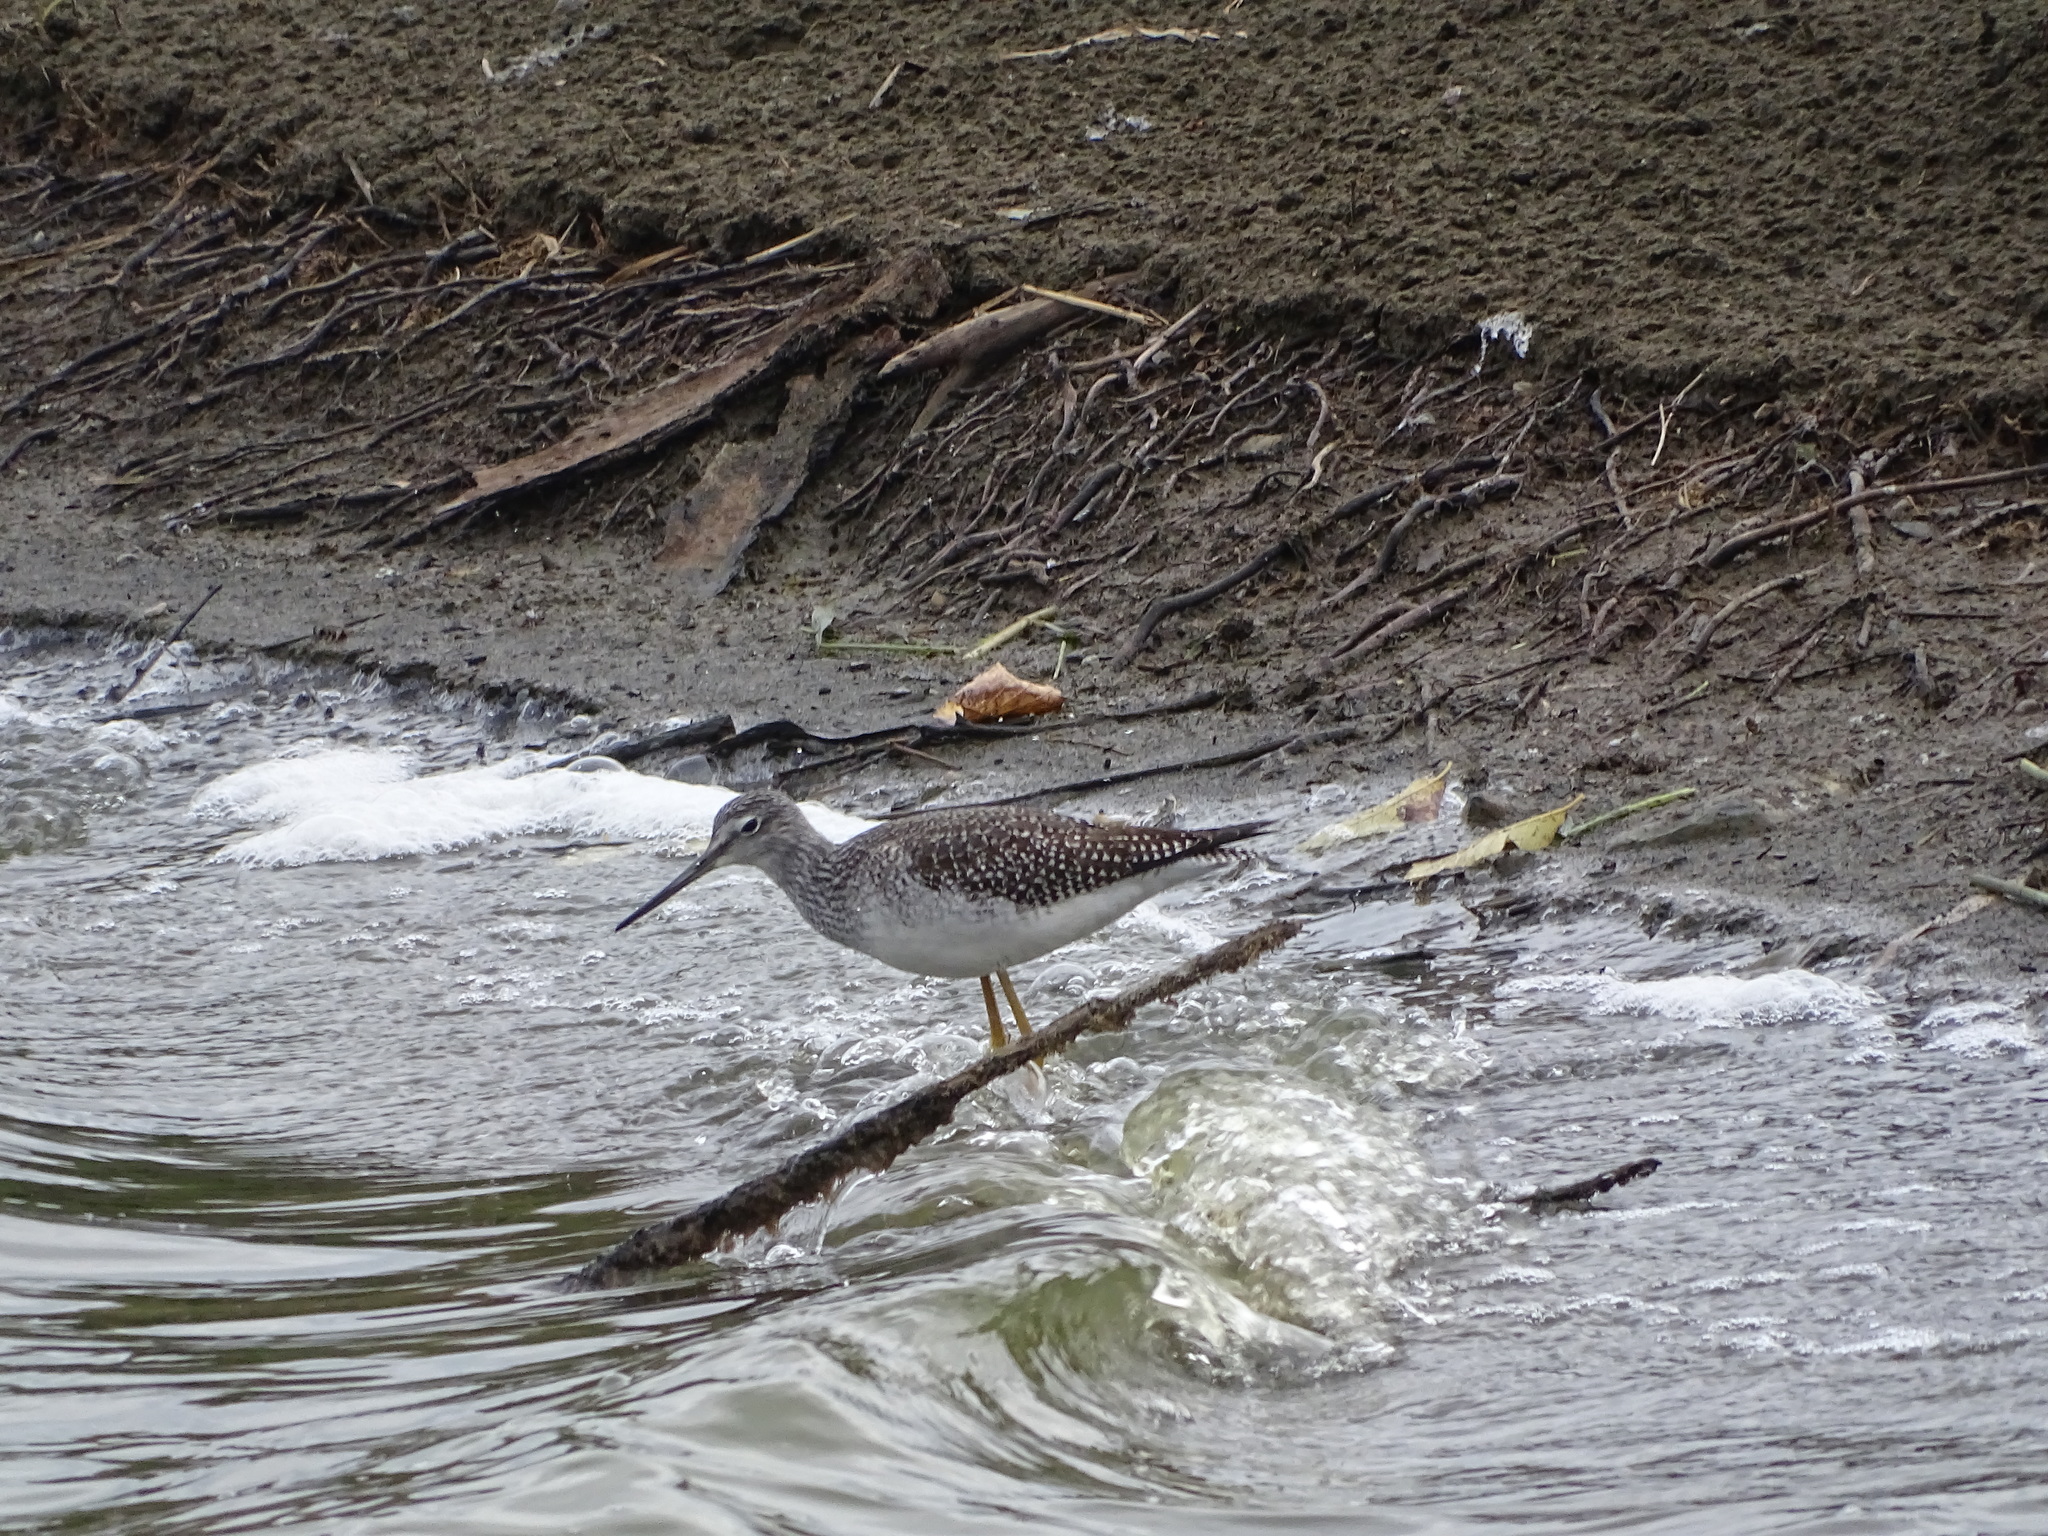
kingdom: Animalia
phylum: Chordata
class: Aves
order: Charadriiformes
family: Scolopacidae
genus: Tringa
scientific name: Tringa melanoleuca
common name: Greater yellowlegs
